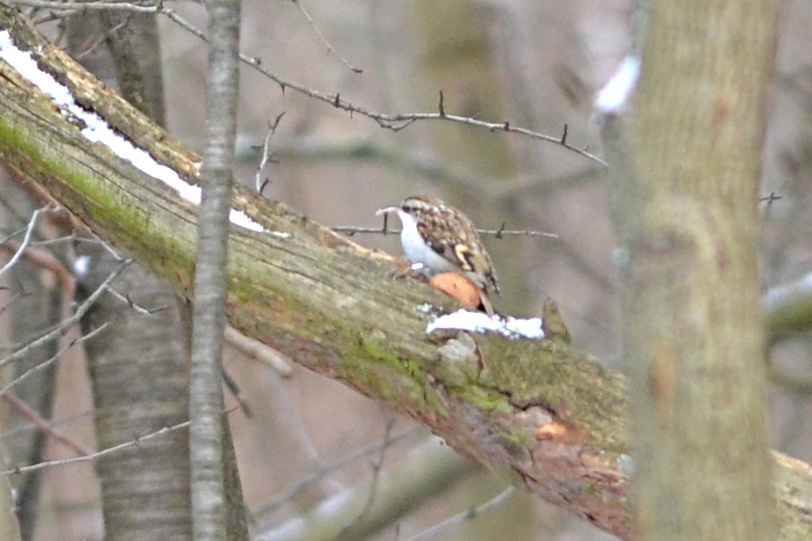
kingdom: Animalia
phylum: Chordata
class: Aves
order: Passeriformes
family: Certhiidae
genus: Certhia
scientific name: Certhia familiaris
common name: Eurasian treecreeper
